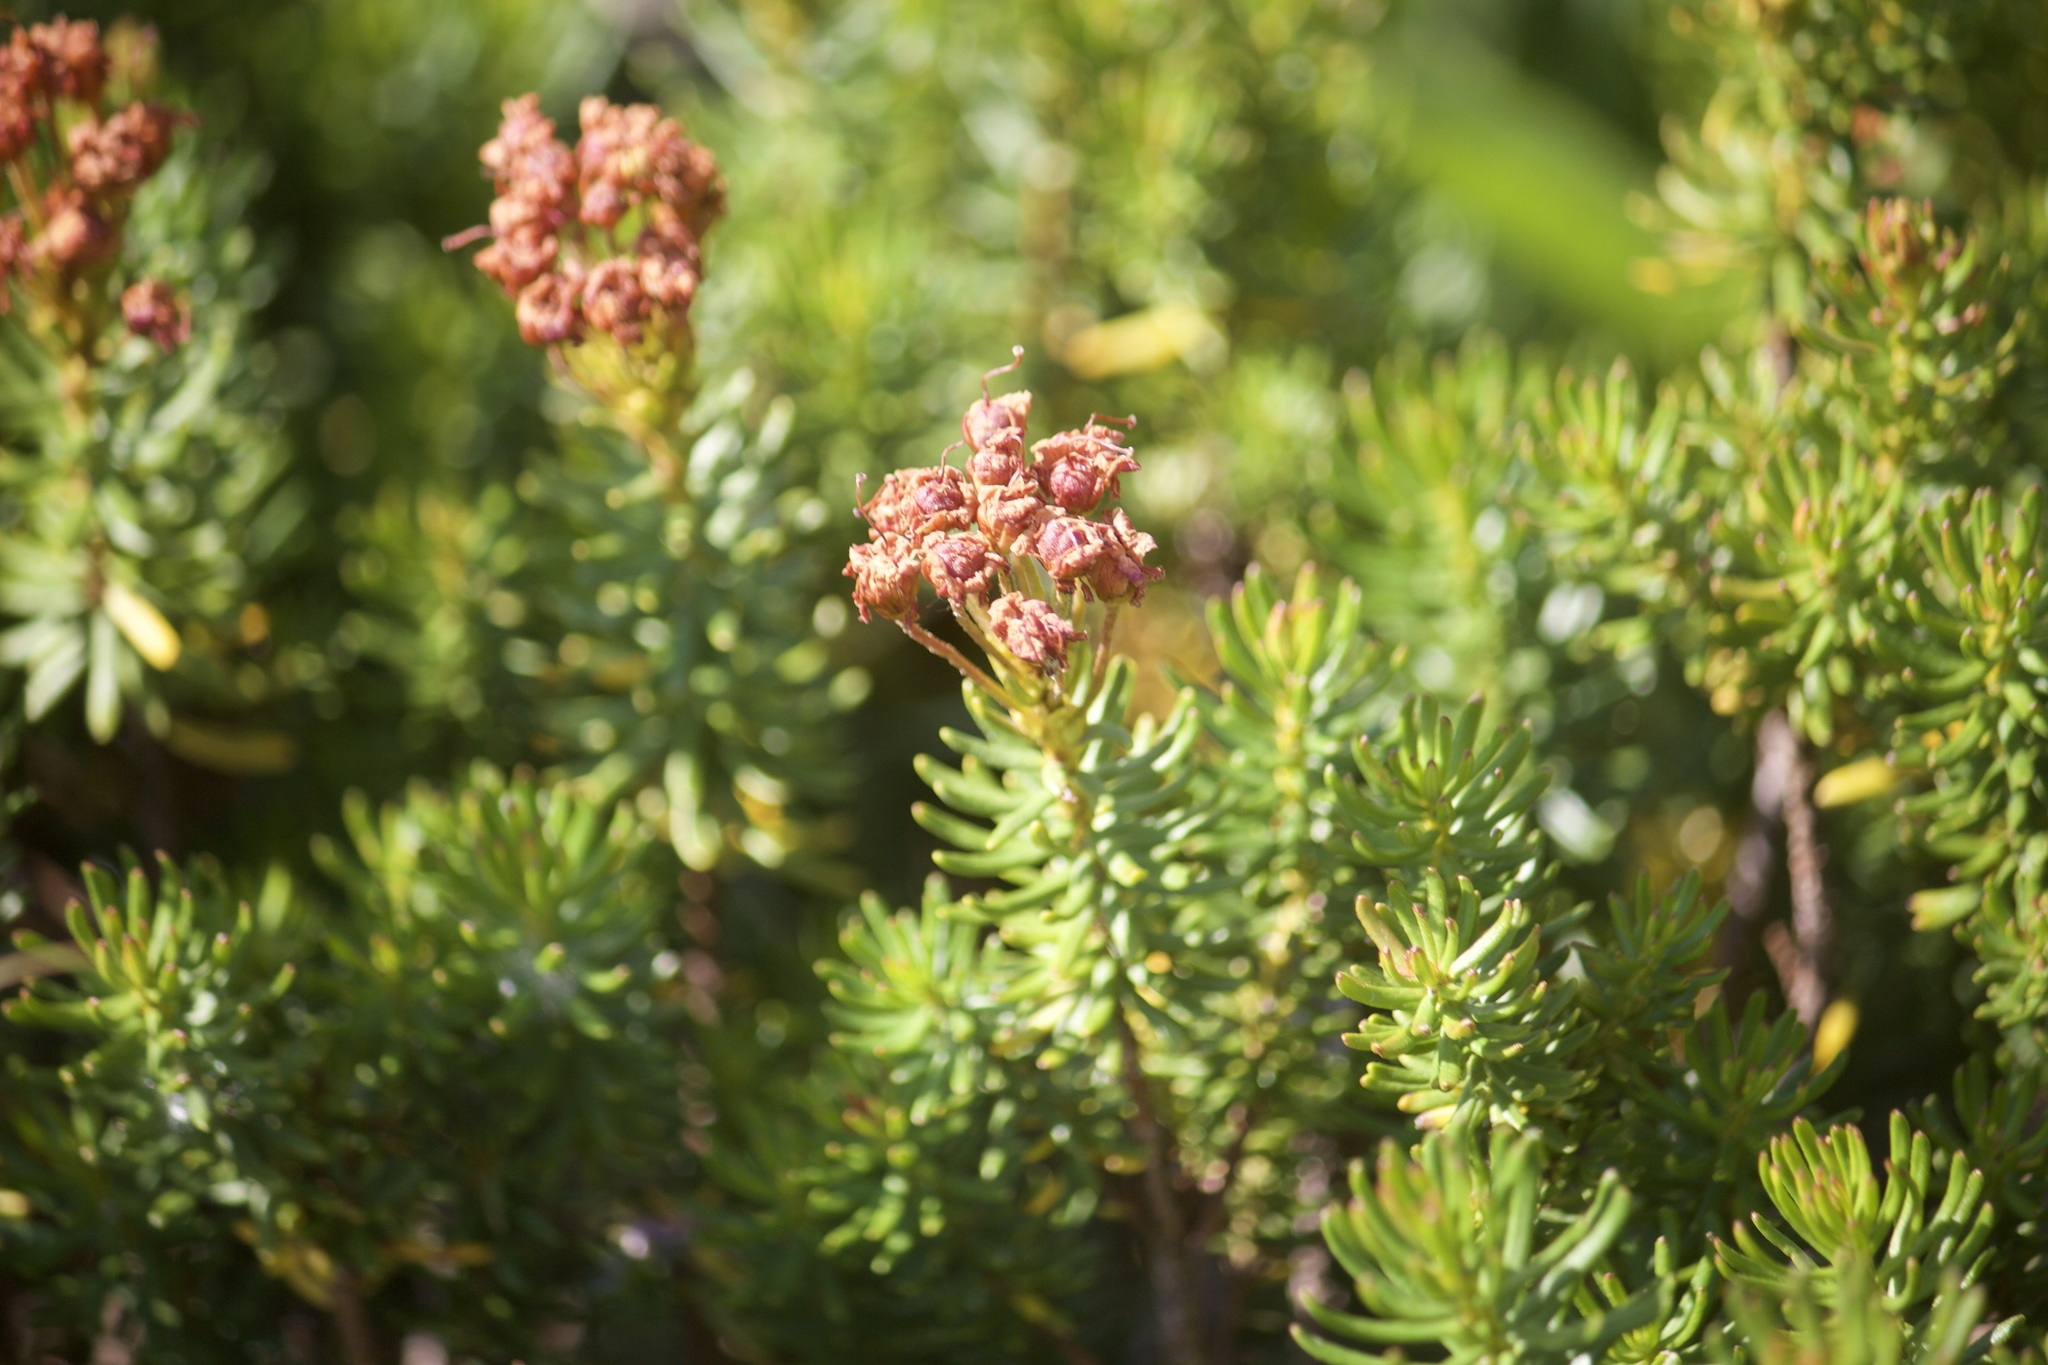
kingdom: Plantae
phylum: Tracheophyta
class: Magnoliopsida
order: Ericales
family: Ericaceae
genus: Phyllodoce
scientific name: Phyllodoce breweri
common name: Brewer's mountain-heather
